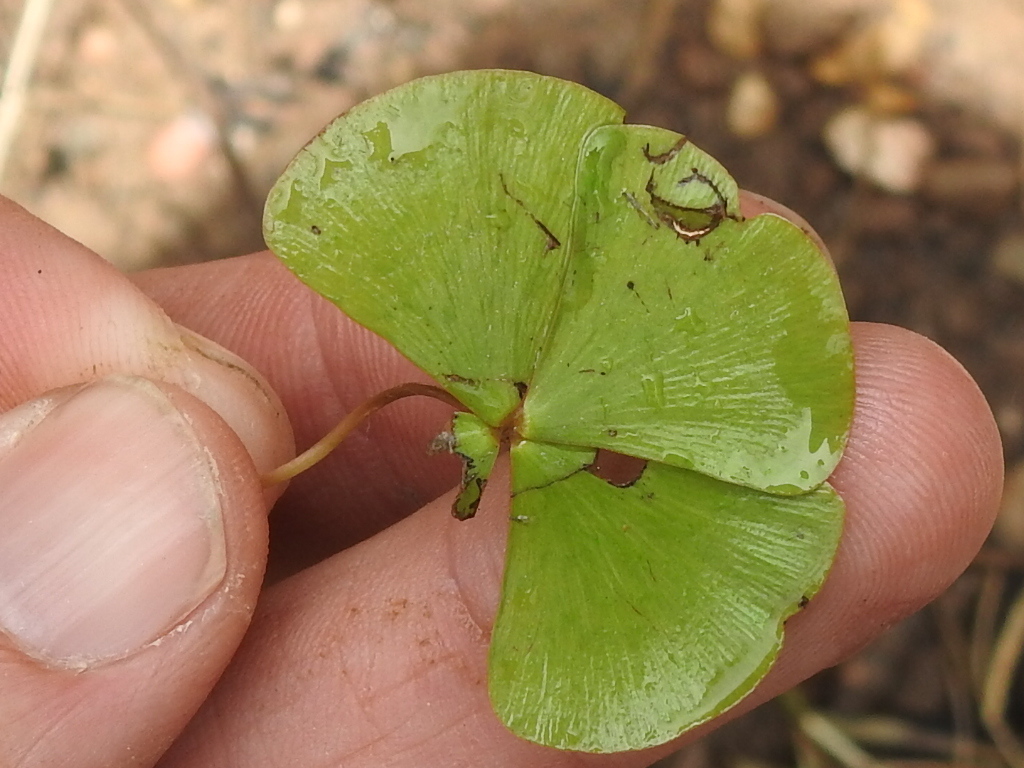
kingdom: Plantae
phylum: Tracheophyta
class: Polypodiopsida
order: Salviniales
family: Marsileaceae
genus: Marsilea
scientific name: Marsilea vestita
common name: Hooked-pepperwort
